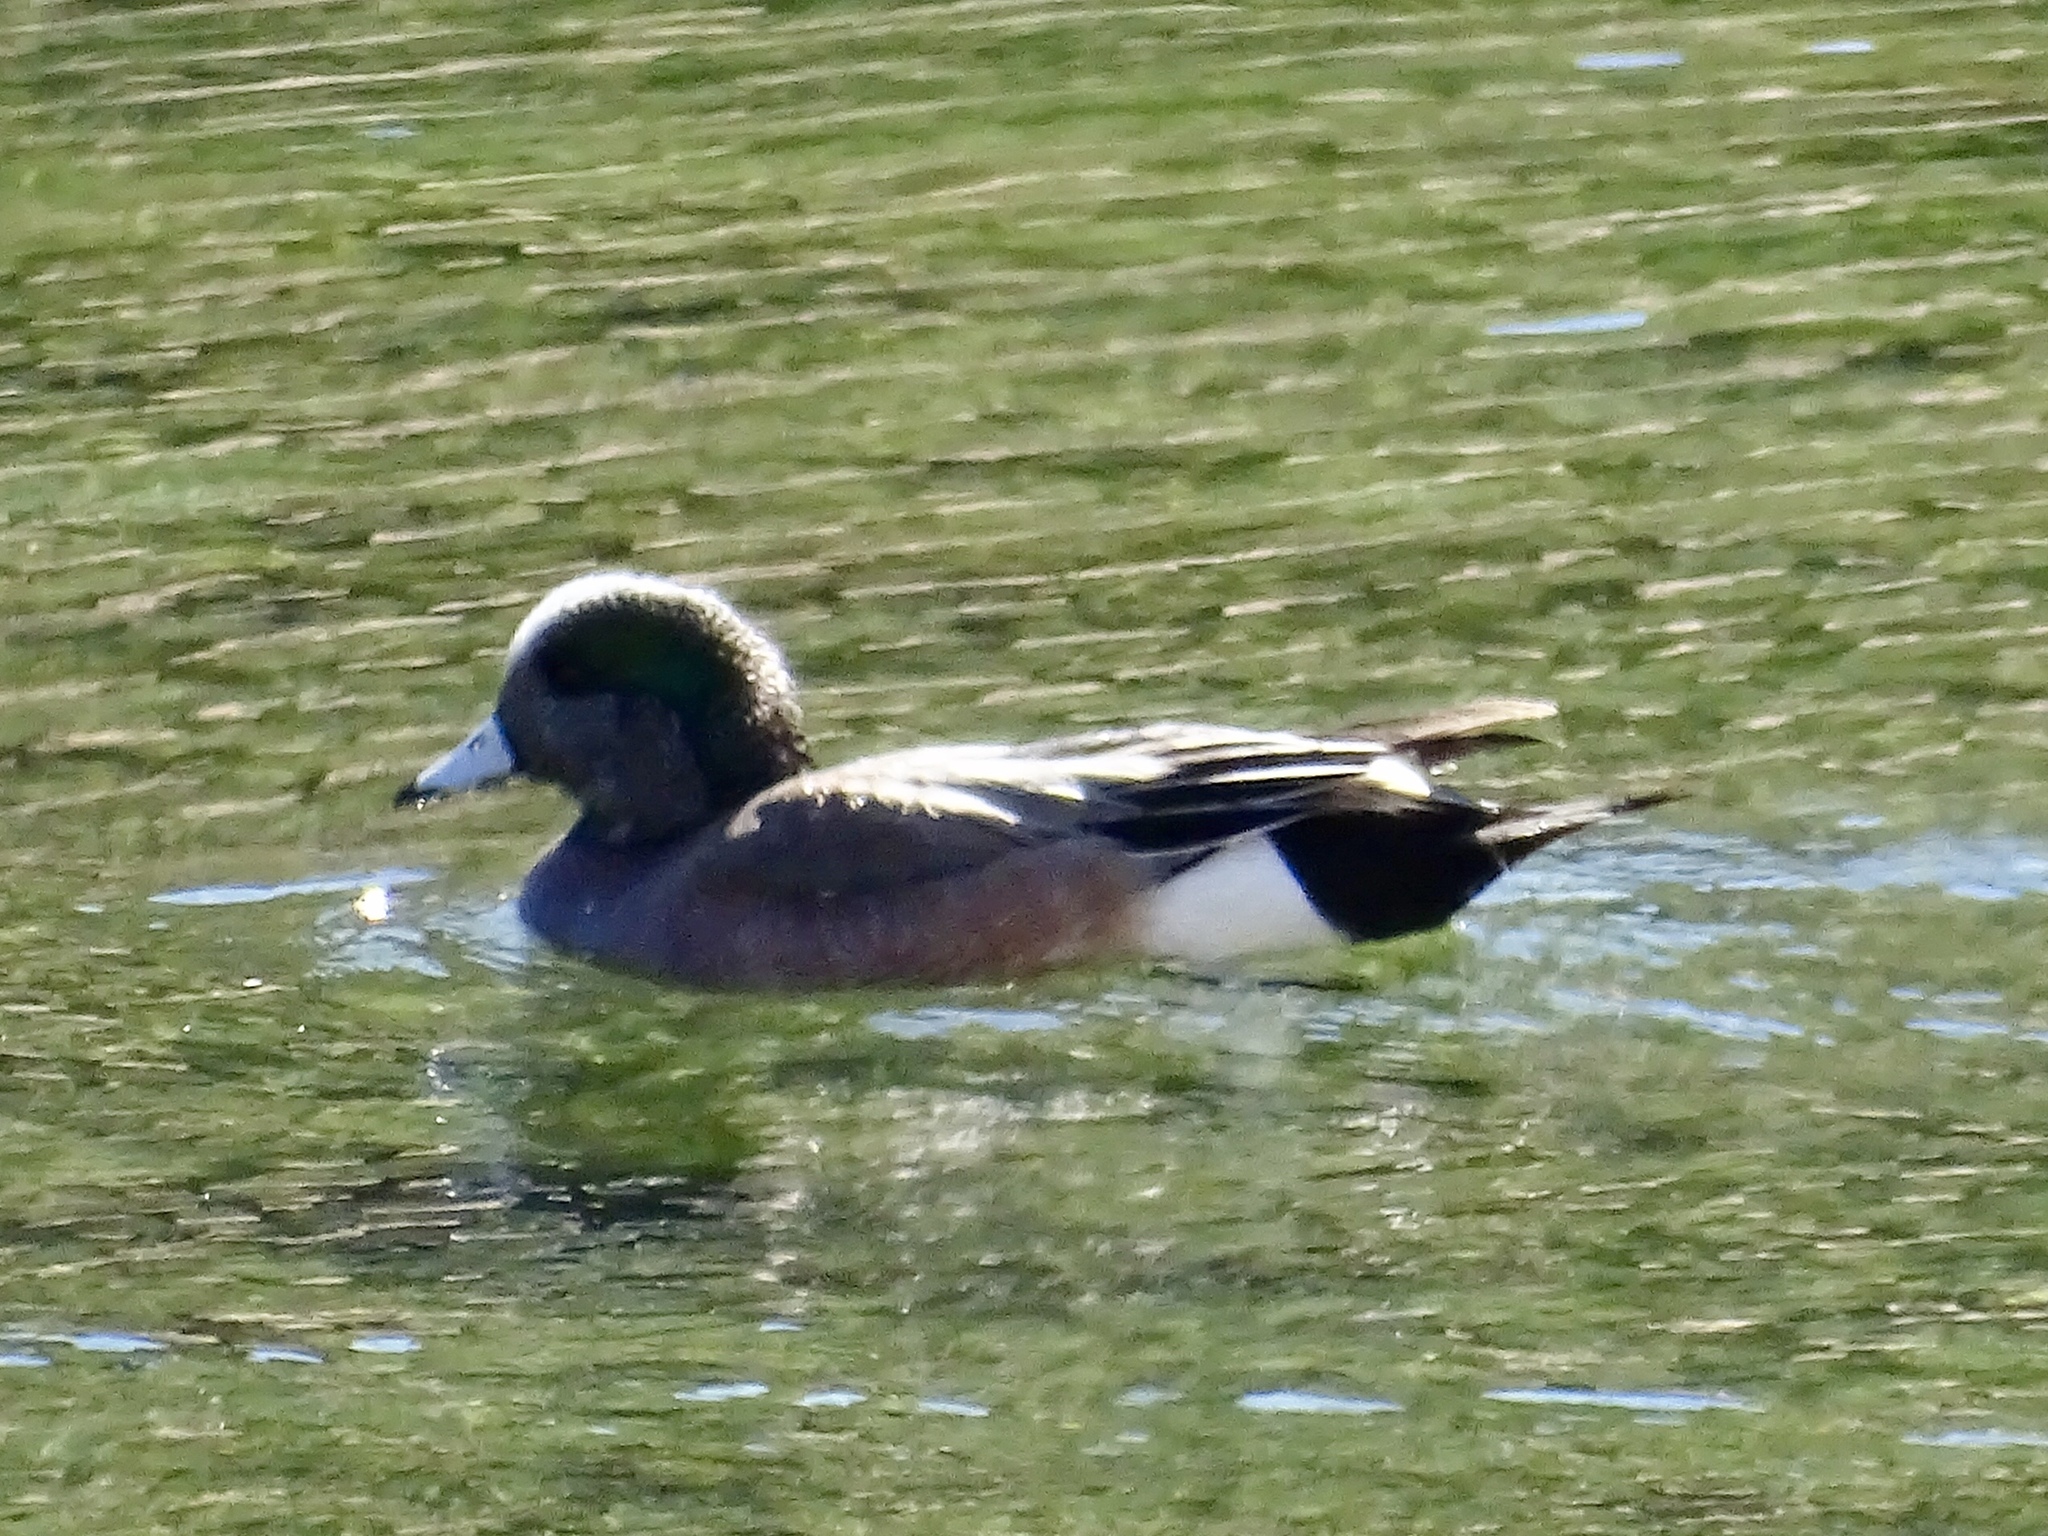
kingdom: Animalia
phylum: Chordata
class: Aves
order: Anseriformes
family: Anatidae
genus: Mareca
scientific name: Mareca americana
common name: American wigeon
